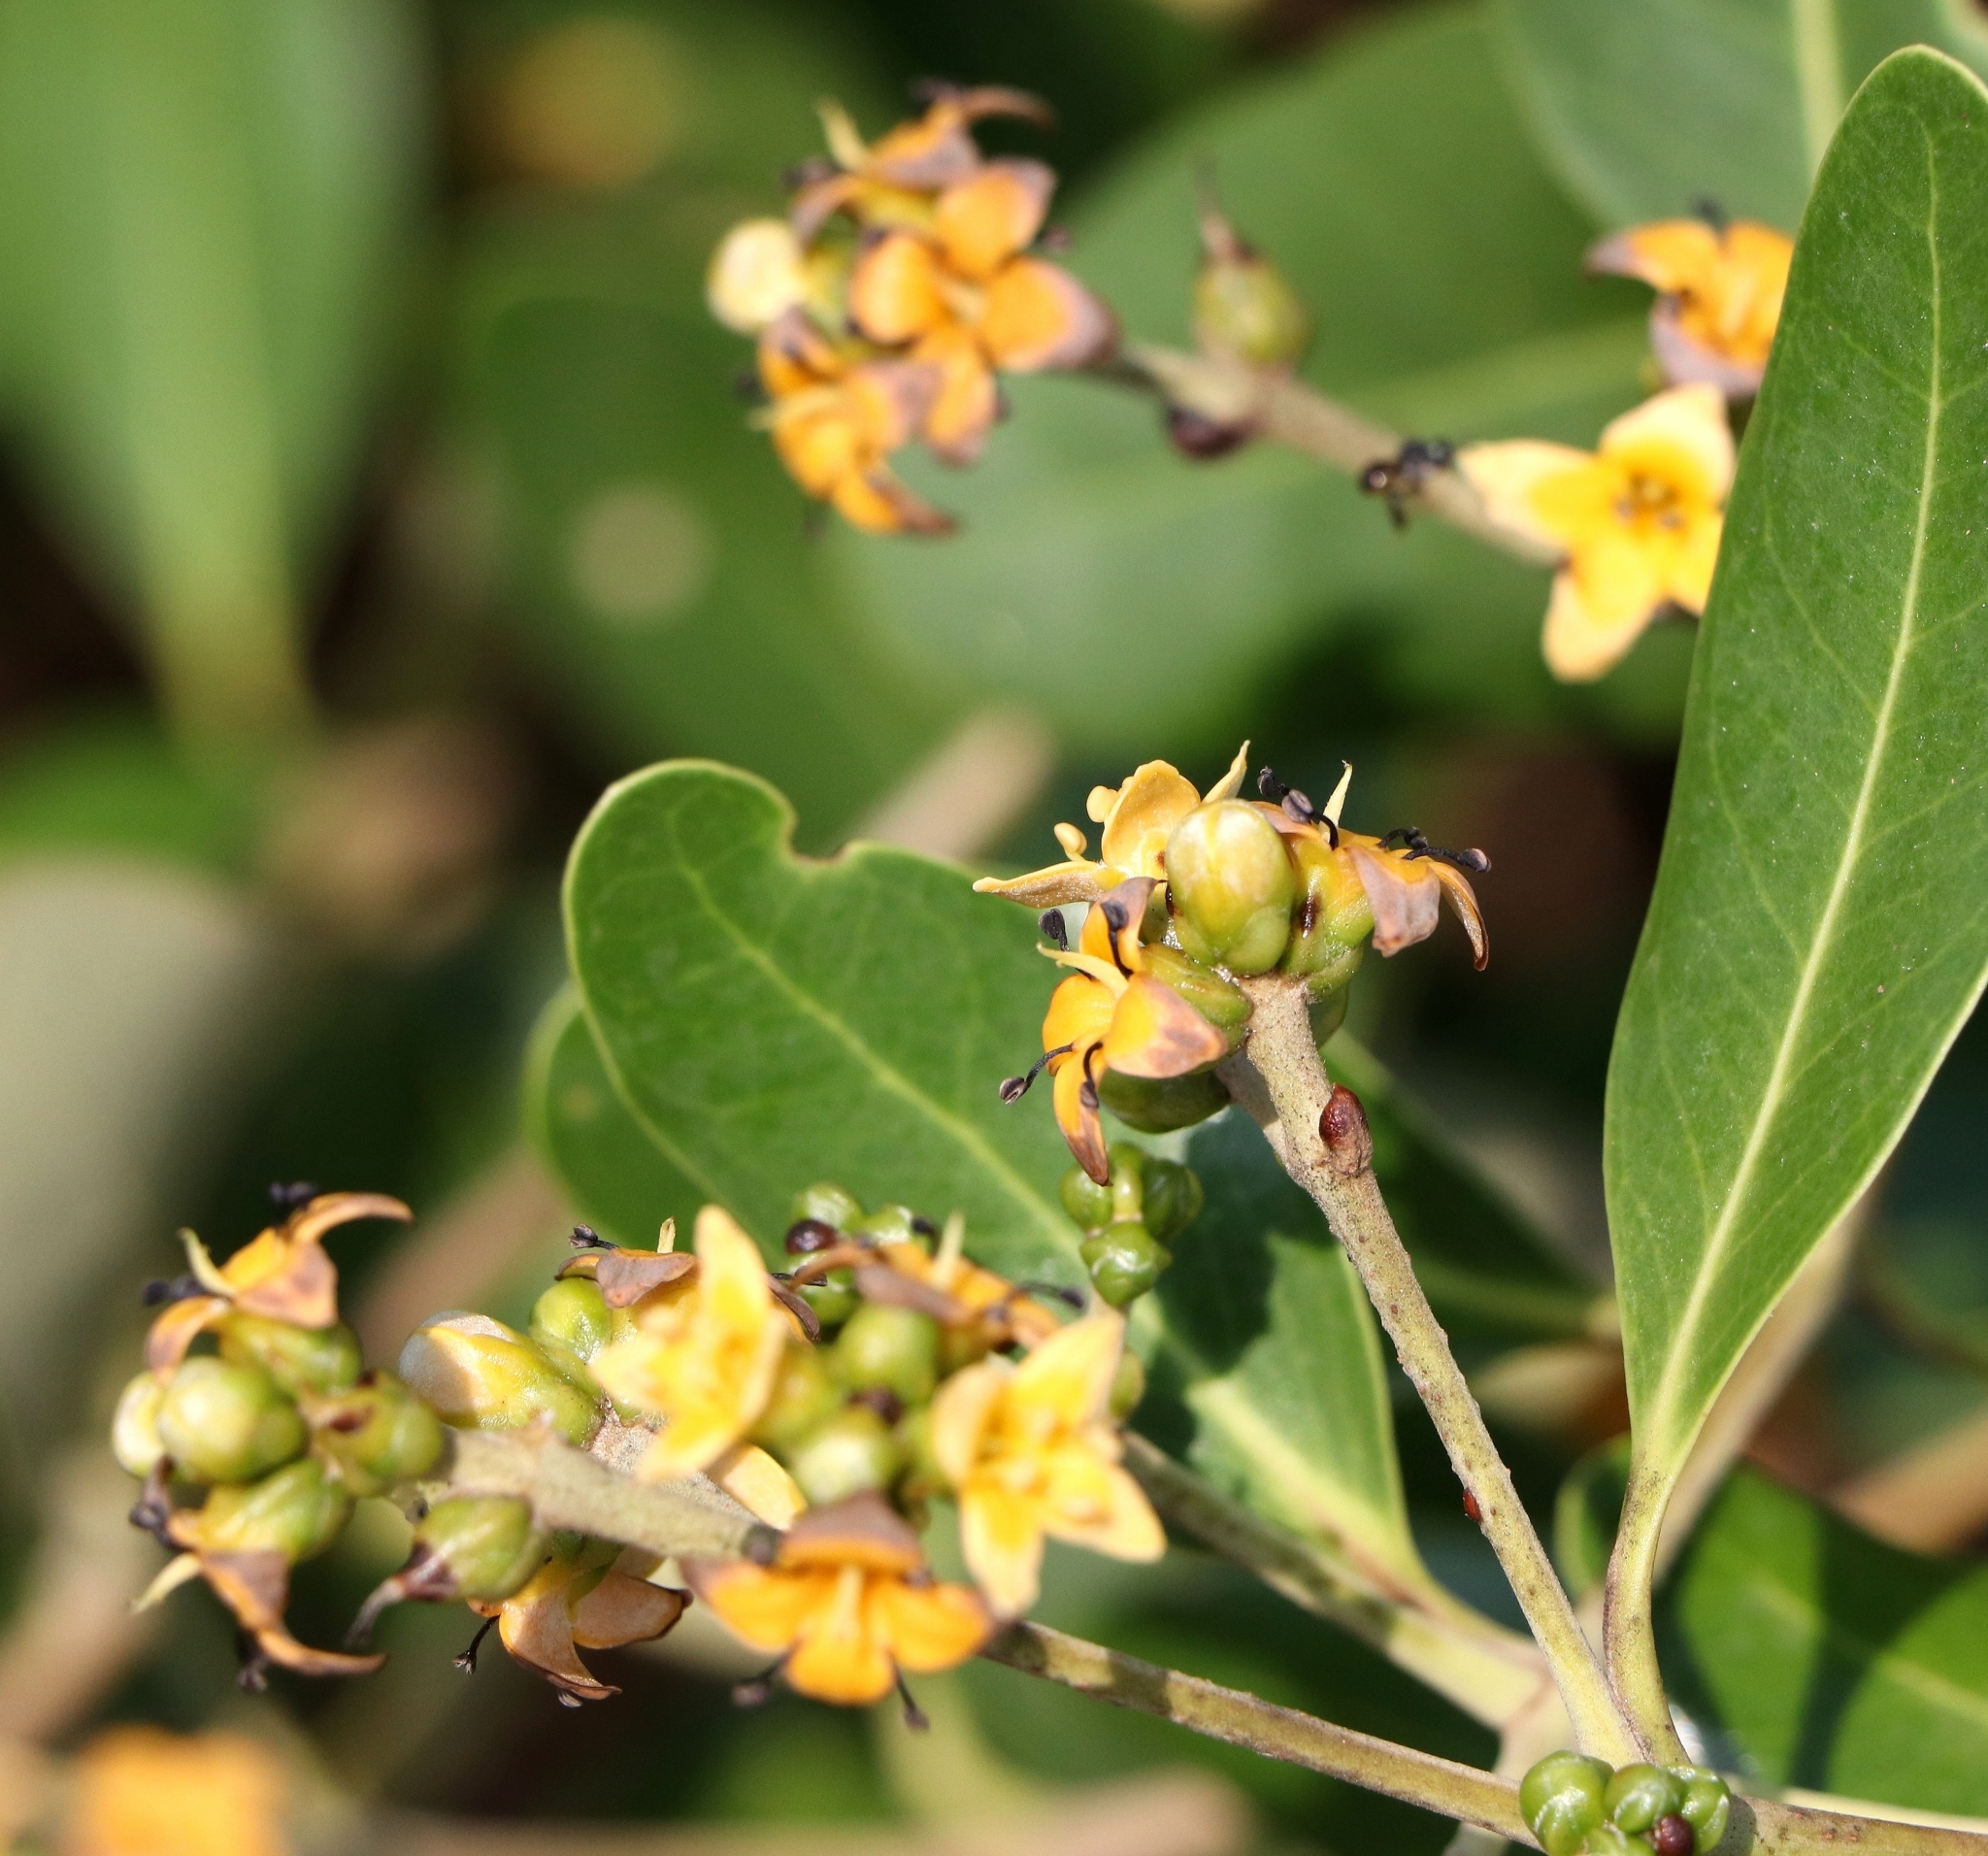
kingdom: Plantae
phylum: Tracheophyta
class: Magnoliopsida
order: Lamiales
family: Acanthaceae
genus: Avicennia
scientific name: Avicennia marina
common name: Gray mangrove
